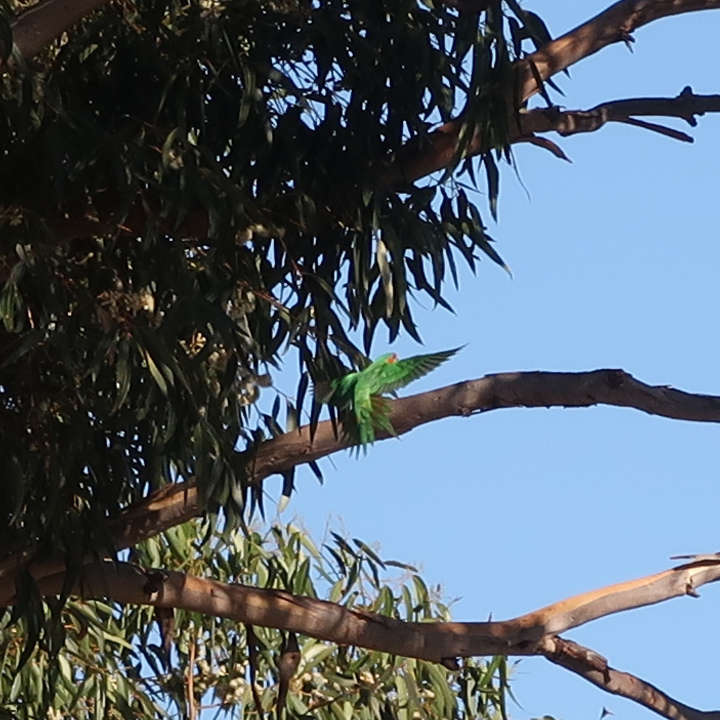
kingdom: Animalia
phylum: Chordata
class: Aves
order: Psittaciformes
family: Psittacidae
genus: Glossopsitta
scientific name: Glossopsitta concinna
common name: Musk lorikeet
